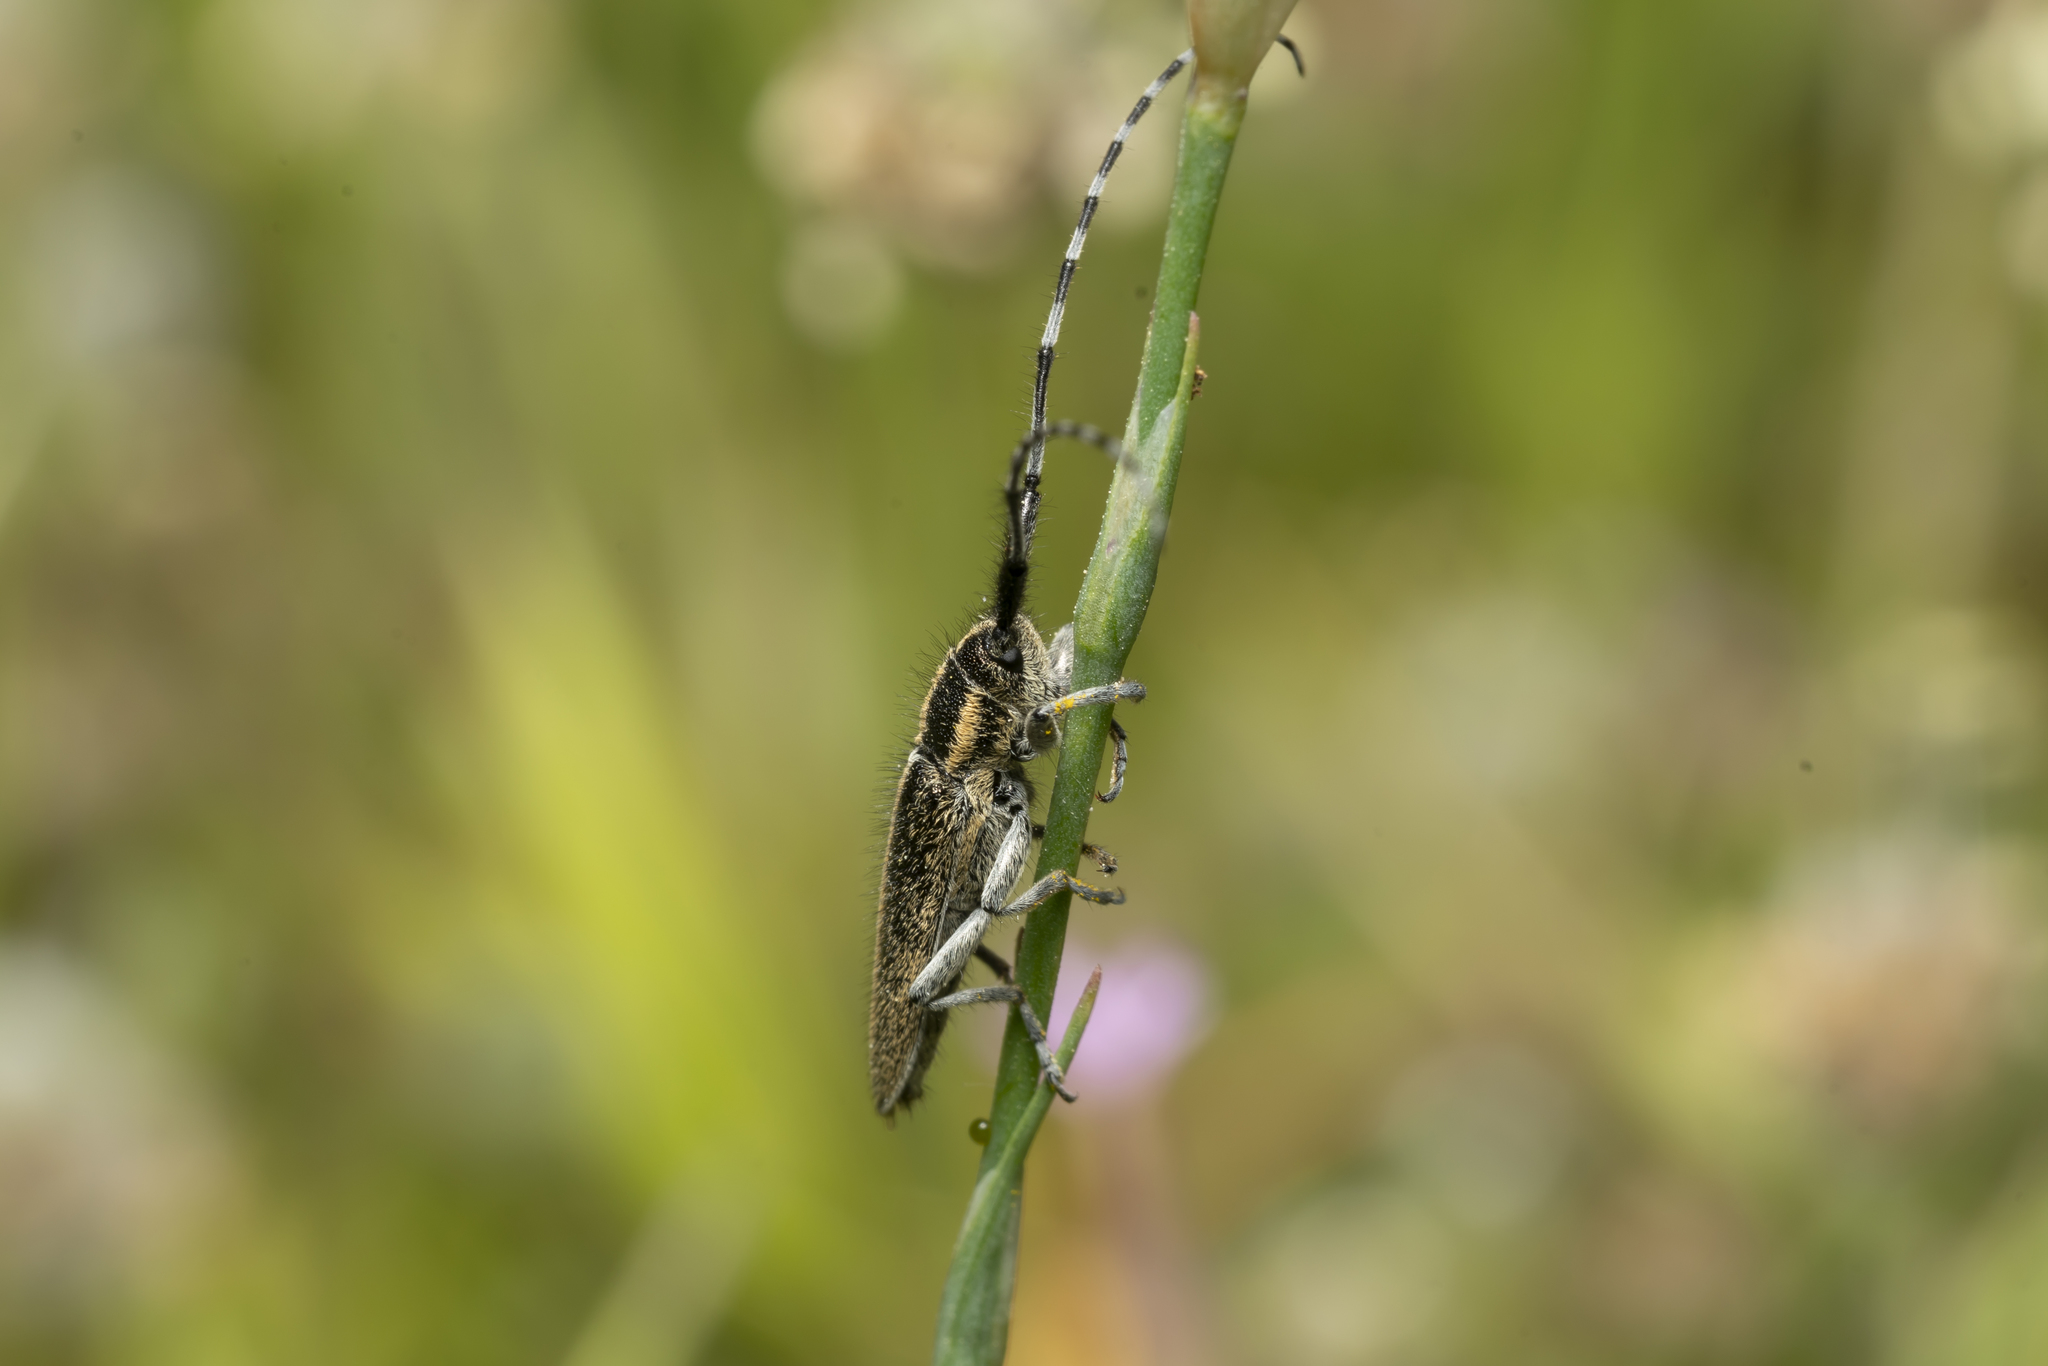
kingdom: Animalia
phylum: Arthropoda
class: Insecta
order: Coleoptera
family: Cerambycidae
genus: Agapanthia
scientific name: Agapanthia suturalis
